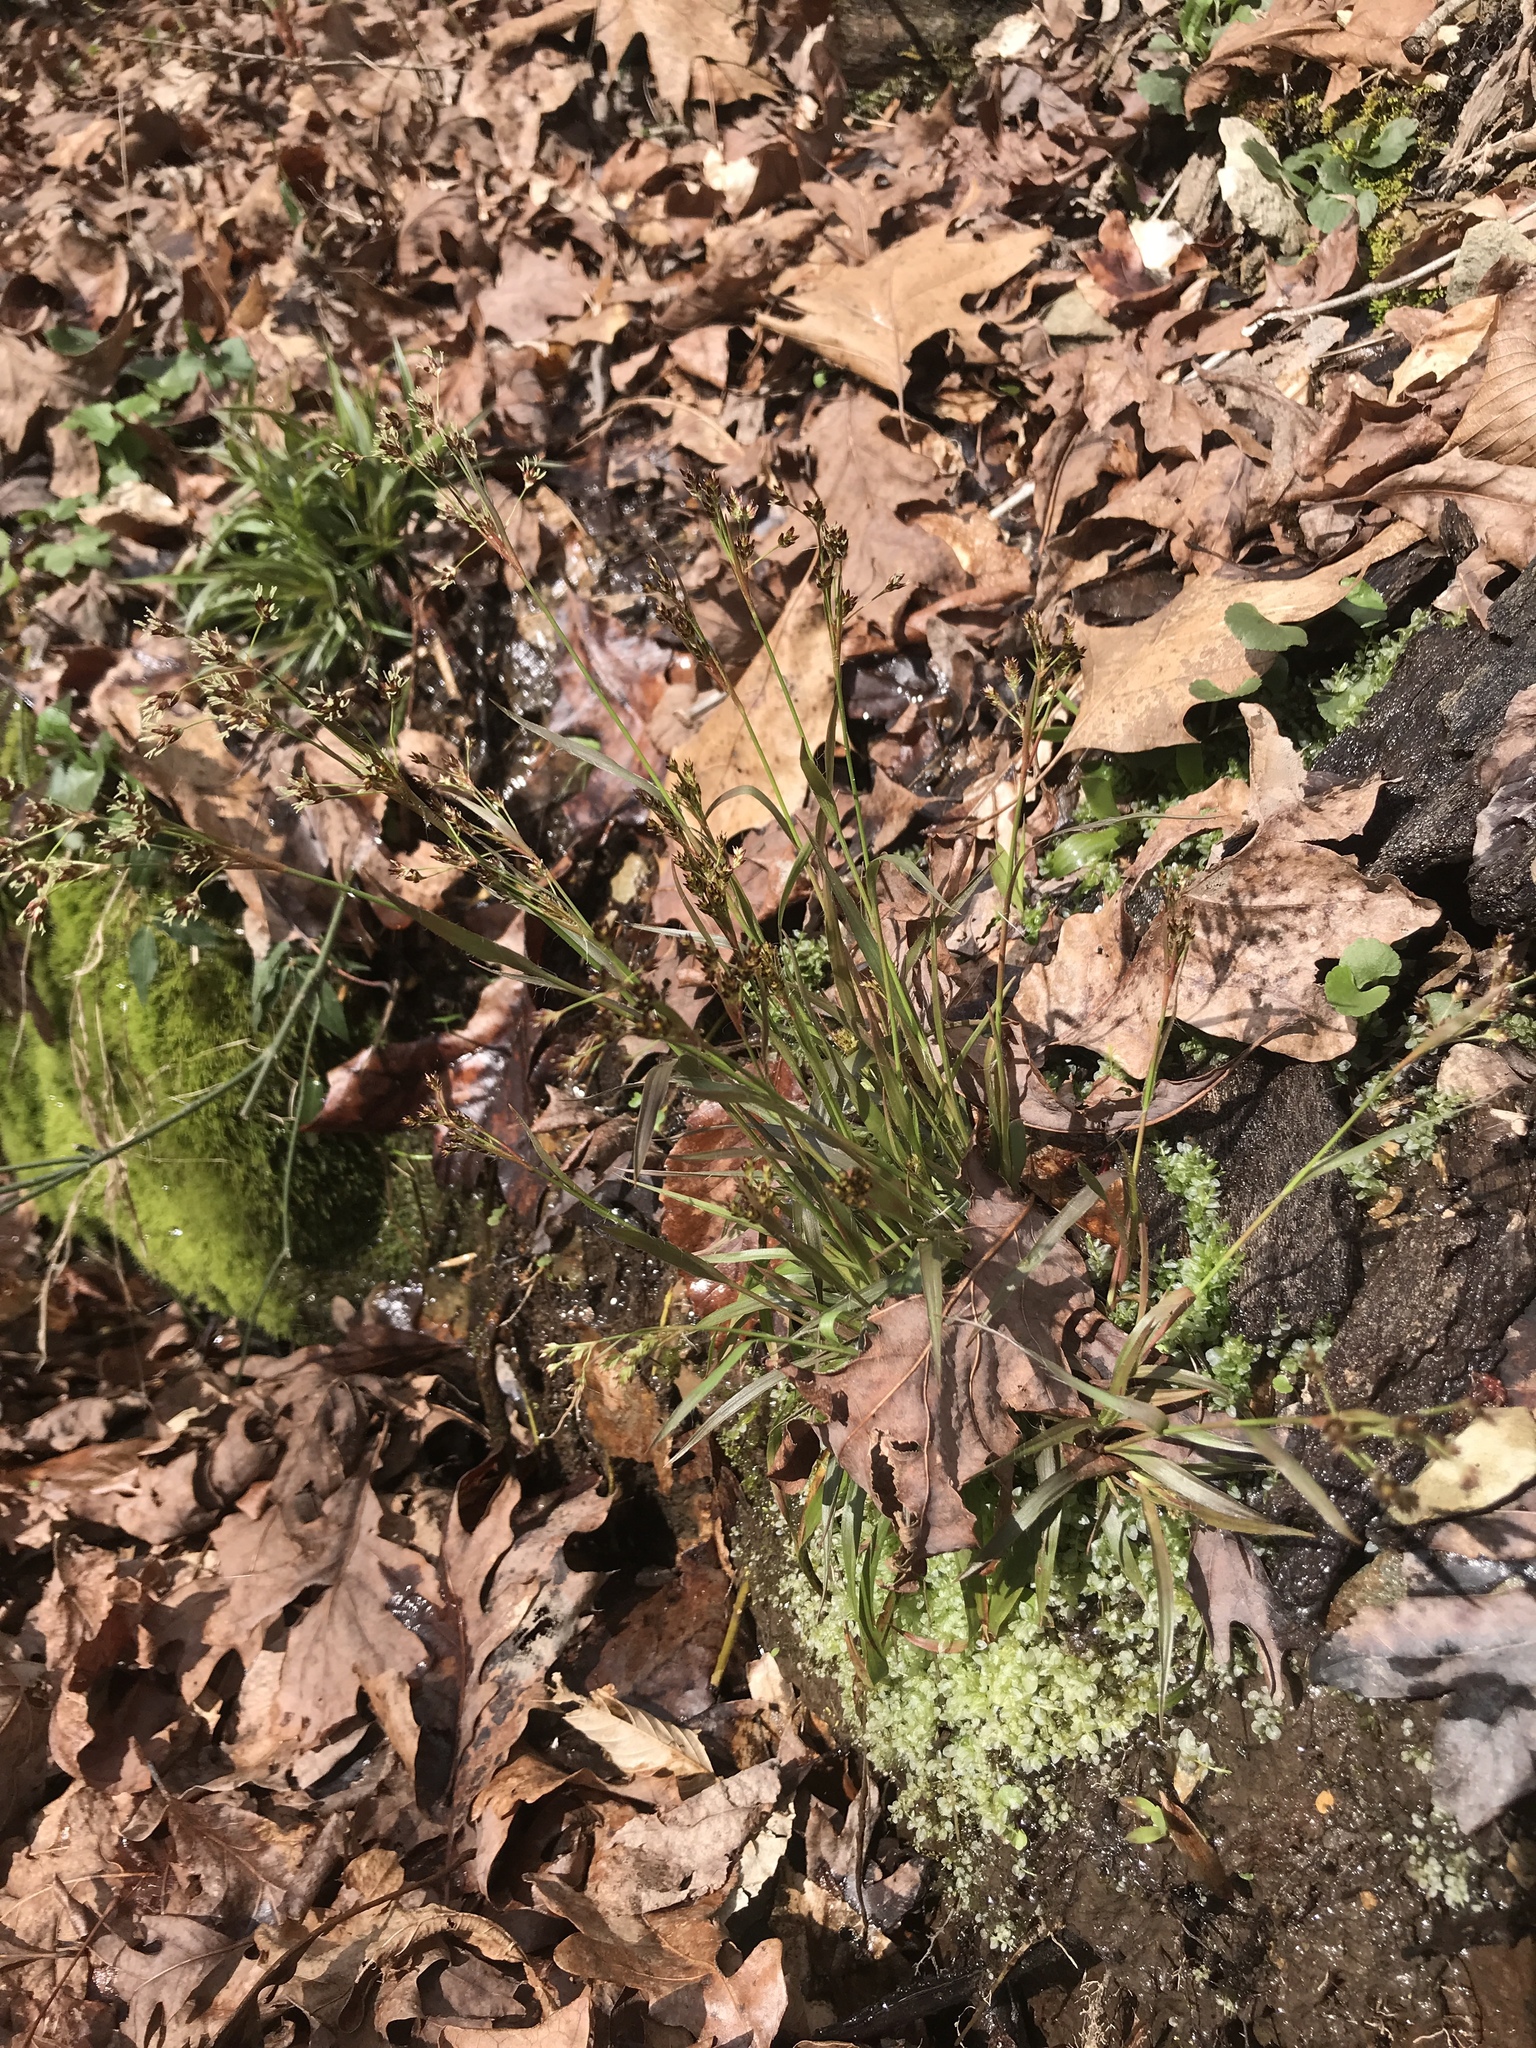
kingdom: Plantae
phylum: Tracheophyta
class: Liliopsida
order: Poales
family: Juncaceae
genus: Luzula
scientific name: Luzula echinata
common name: Hedgehog woodrush
